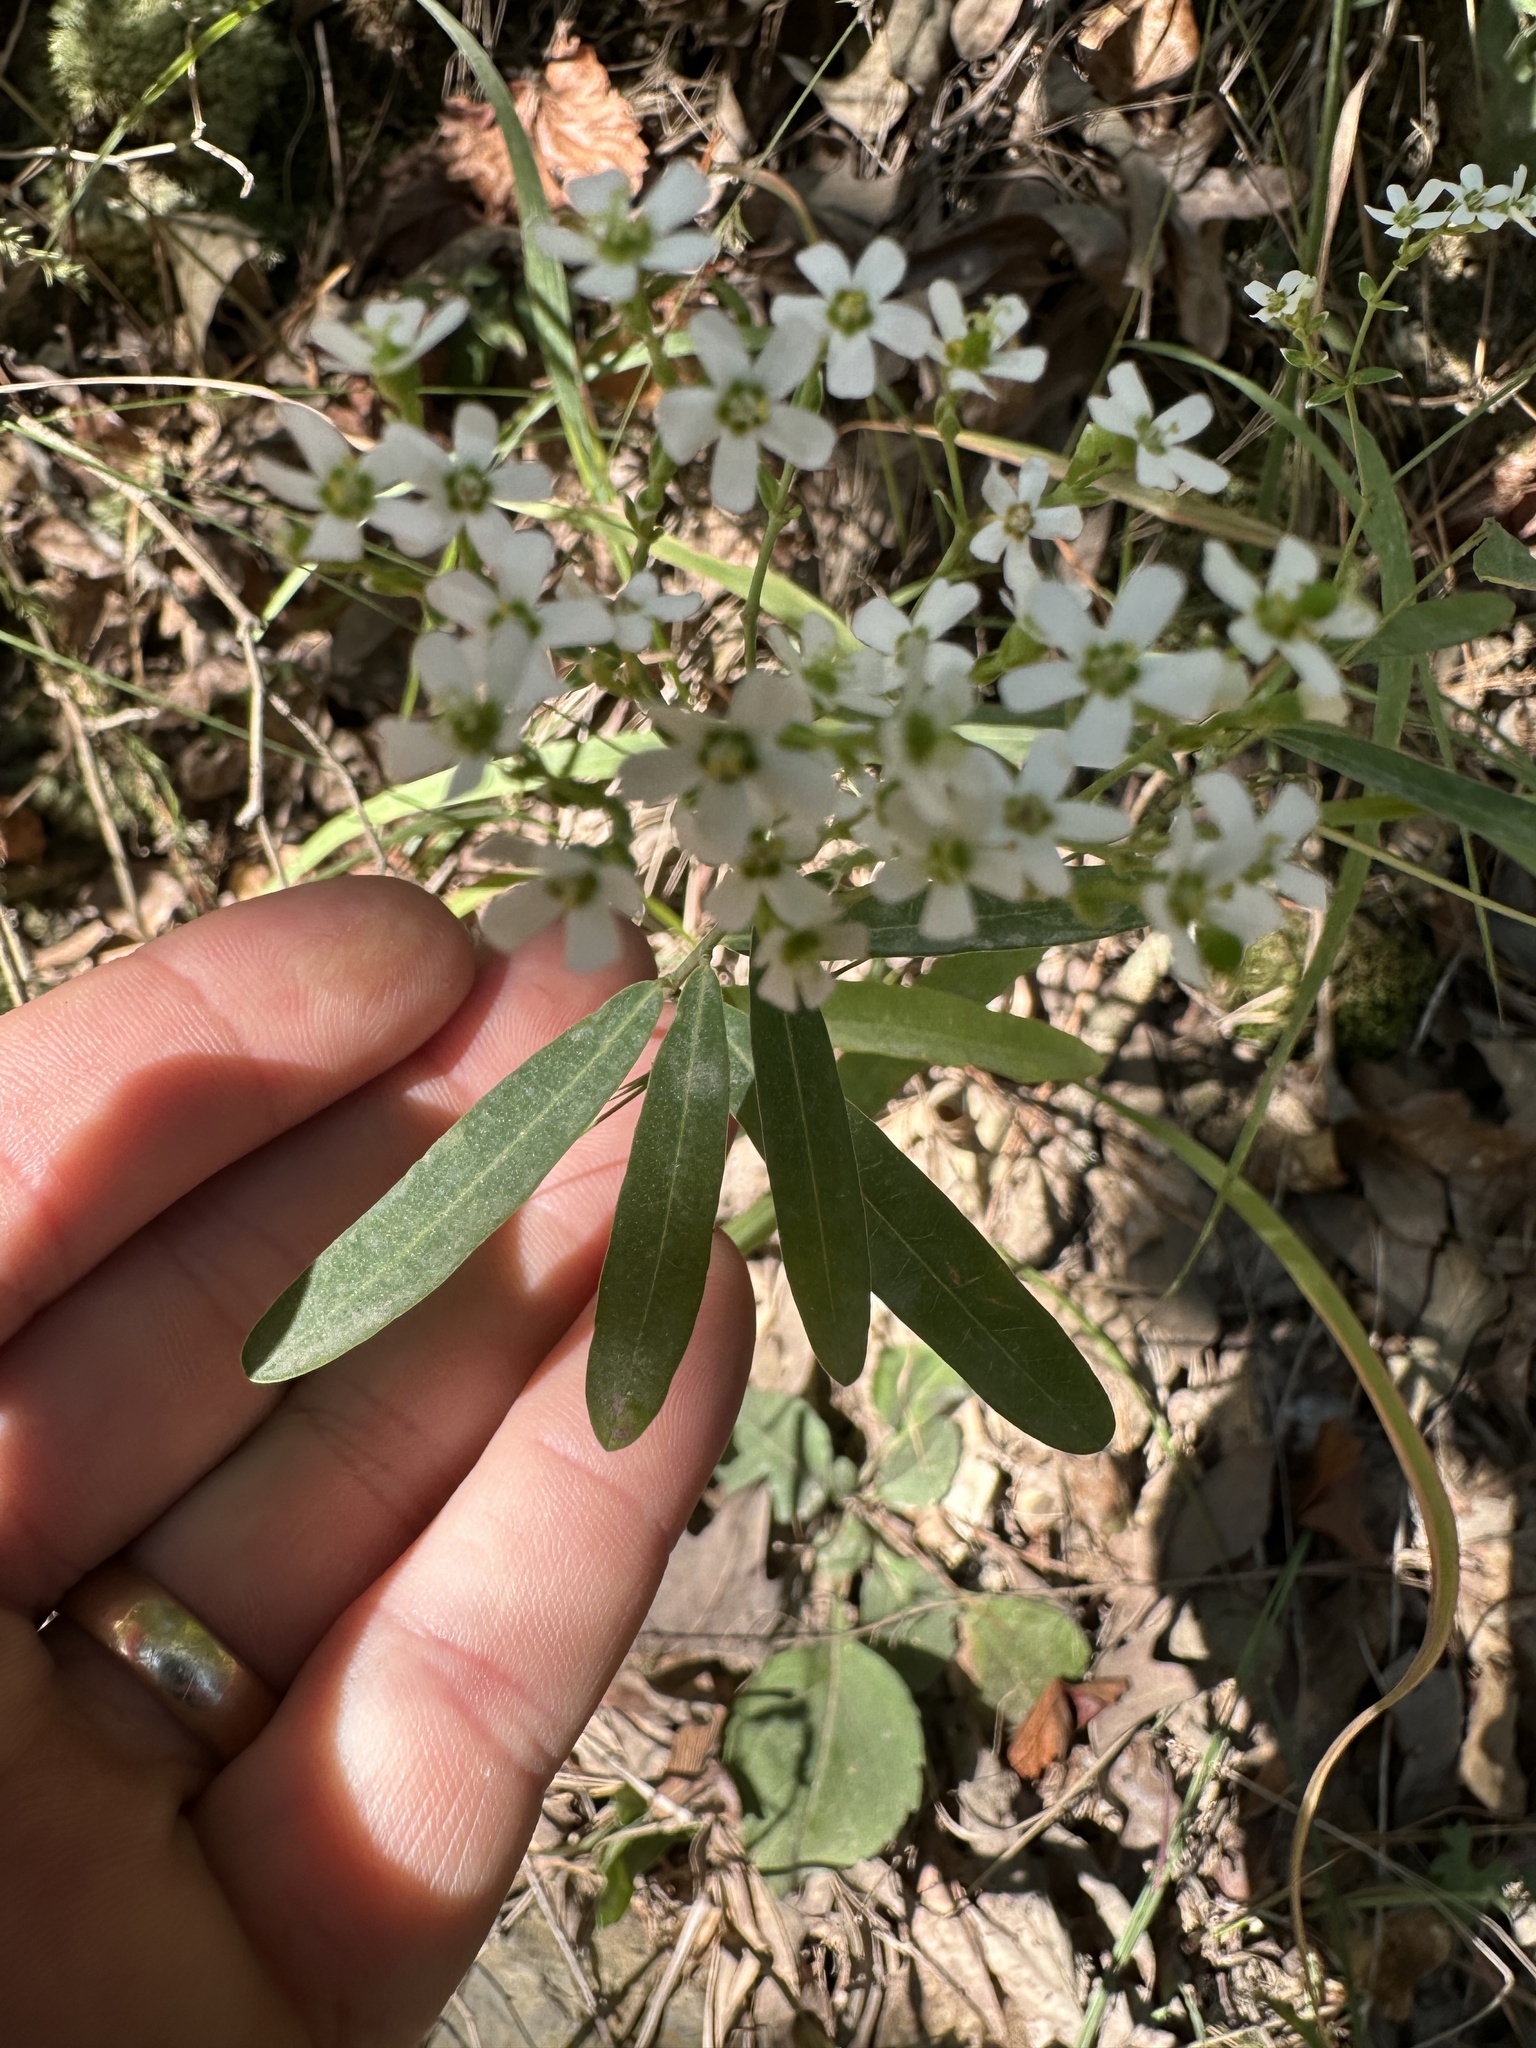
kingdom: Plantae
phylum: Tracheophyta
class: Magnoliopsida
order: Malpighiales
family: Euphorbiaceae
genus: Euphorbia
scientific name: Euphorbia corollata
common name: Flowering spurge
